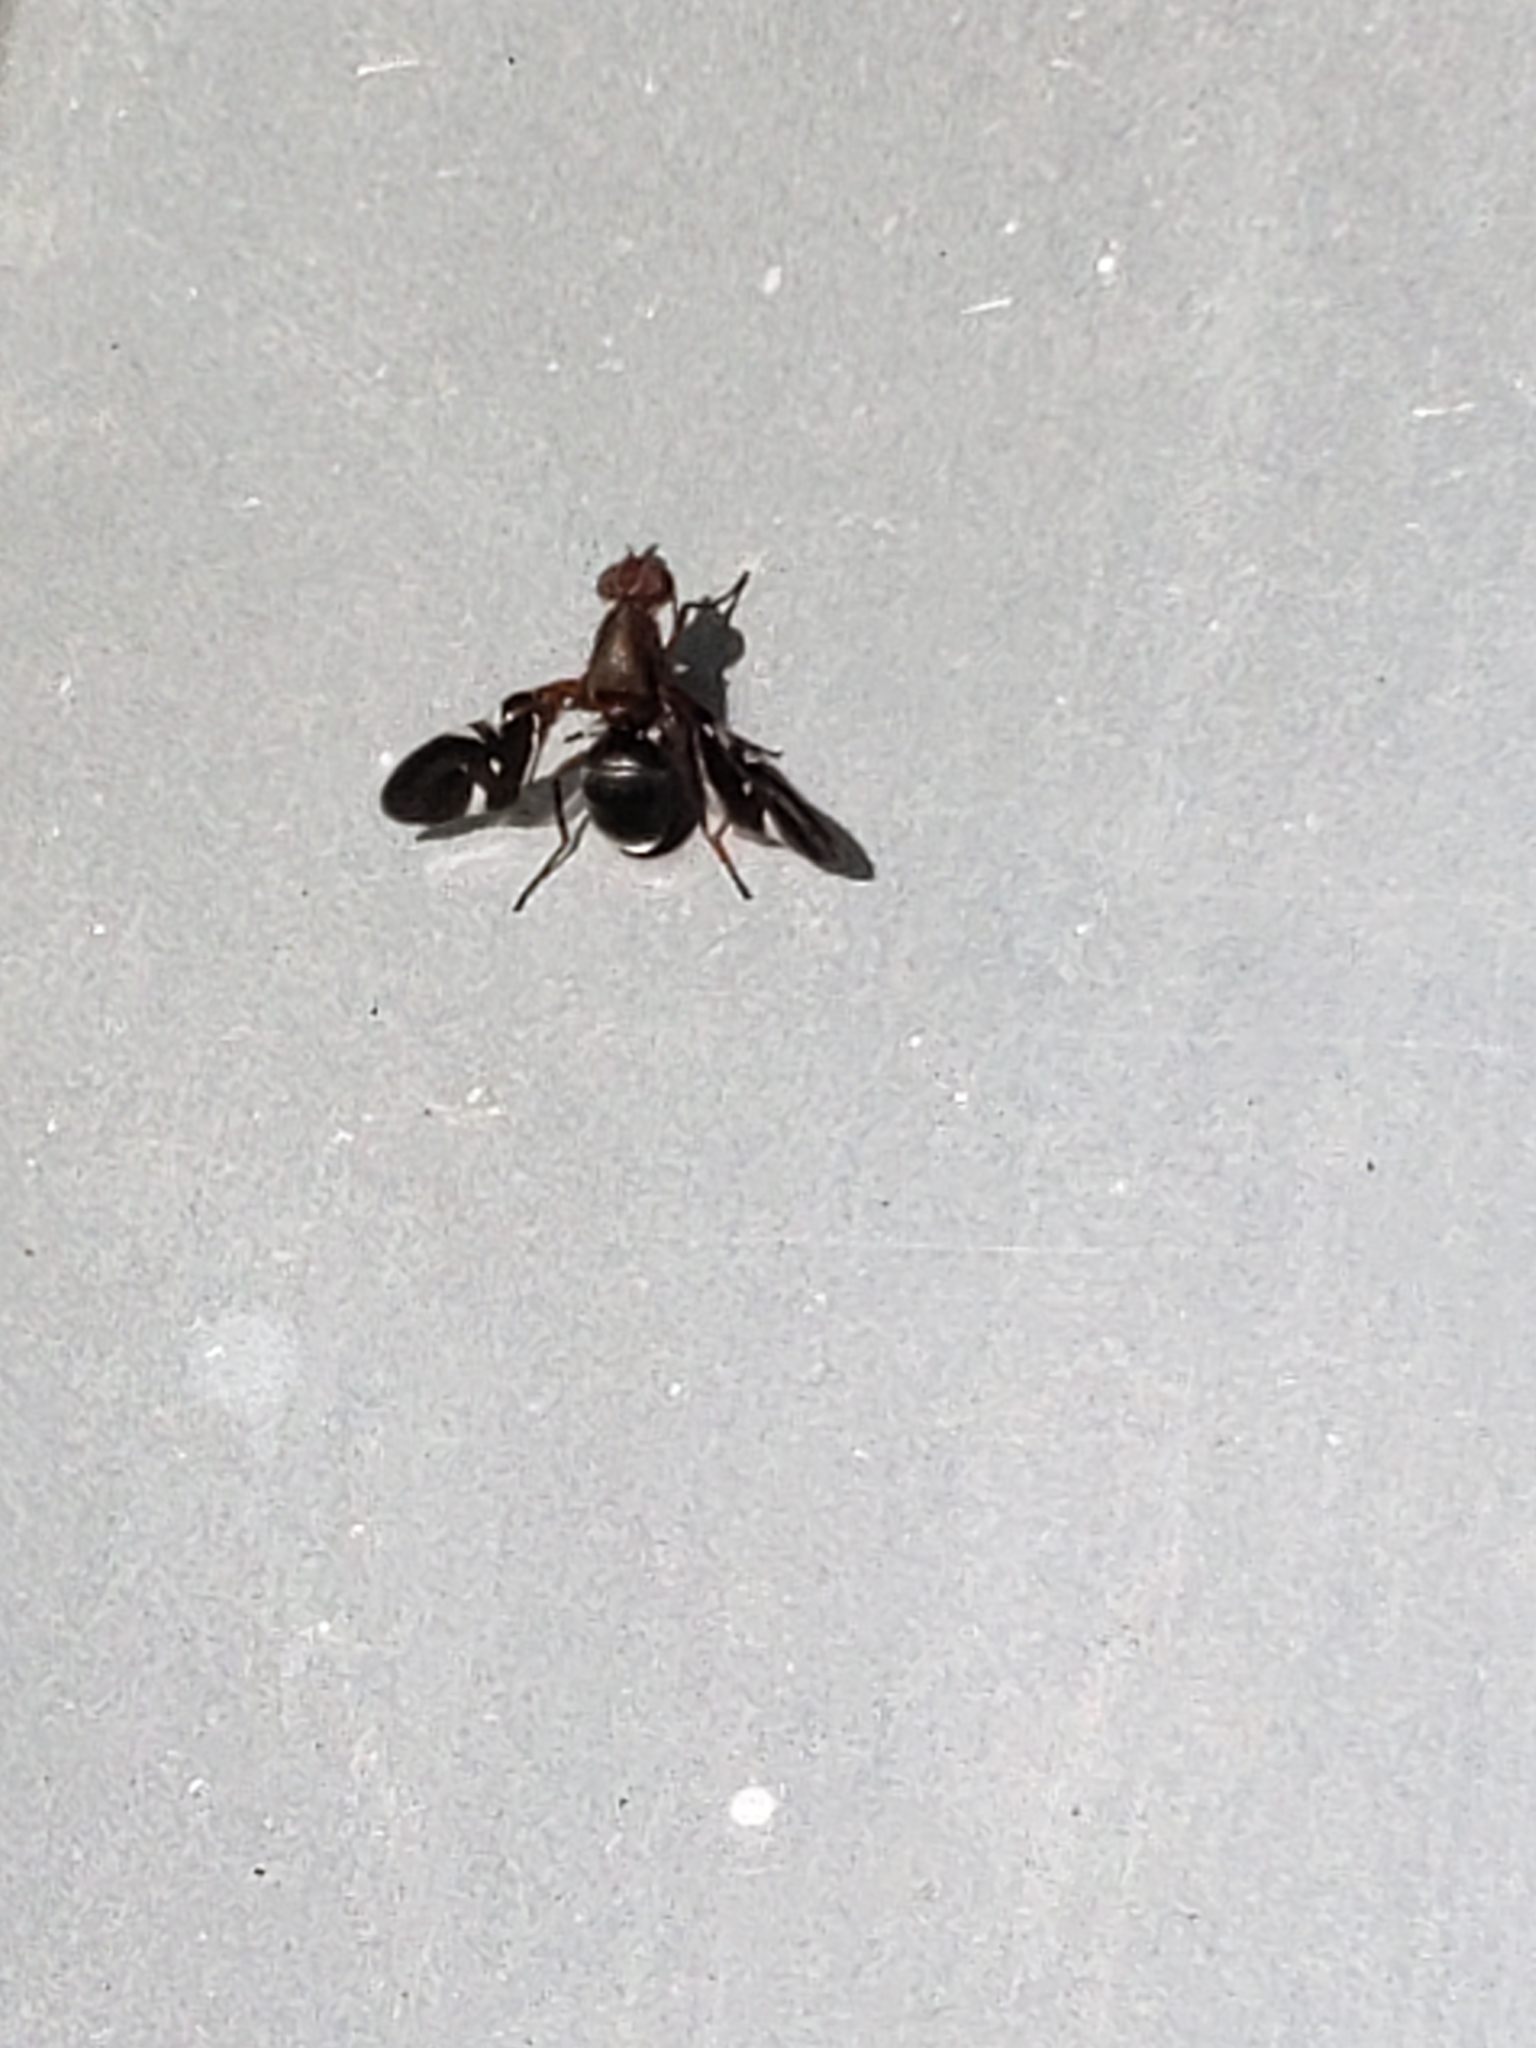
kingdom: Animalia
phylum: Arthropoda
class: Insecta
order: Diptera
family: Ulidiidae
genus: Delphinia
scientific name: Delphinia picta
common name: Common picture-winged fly
